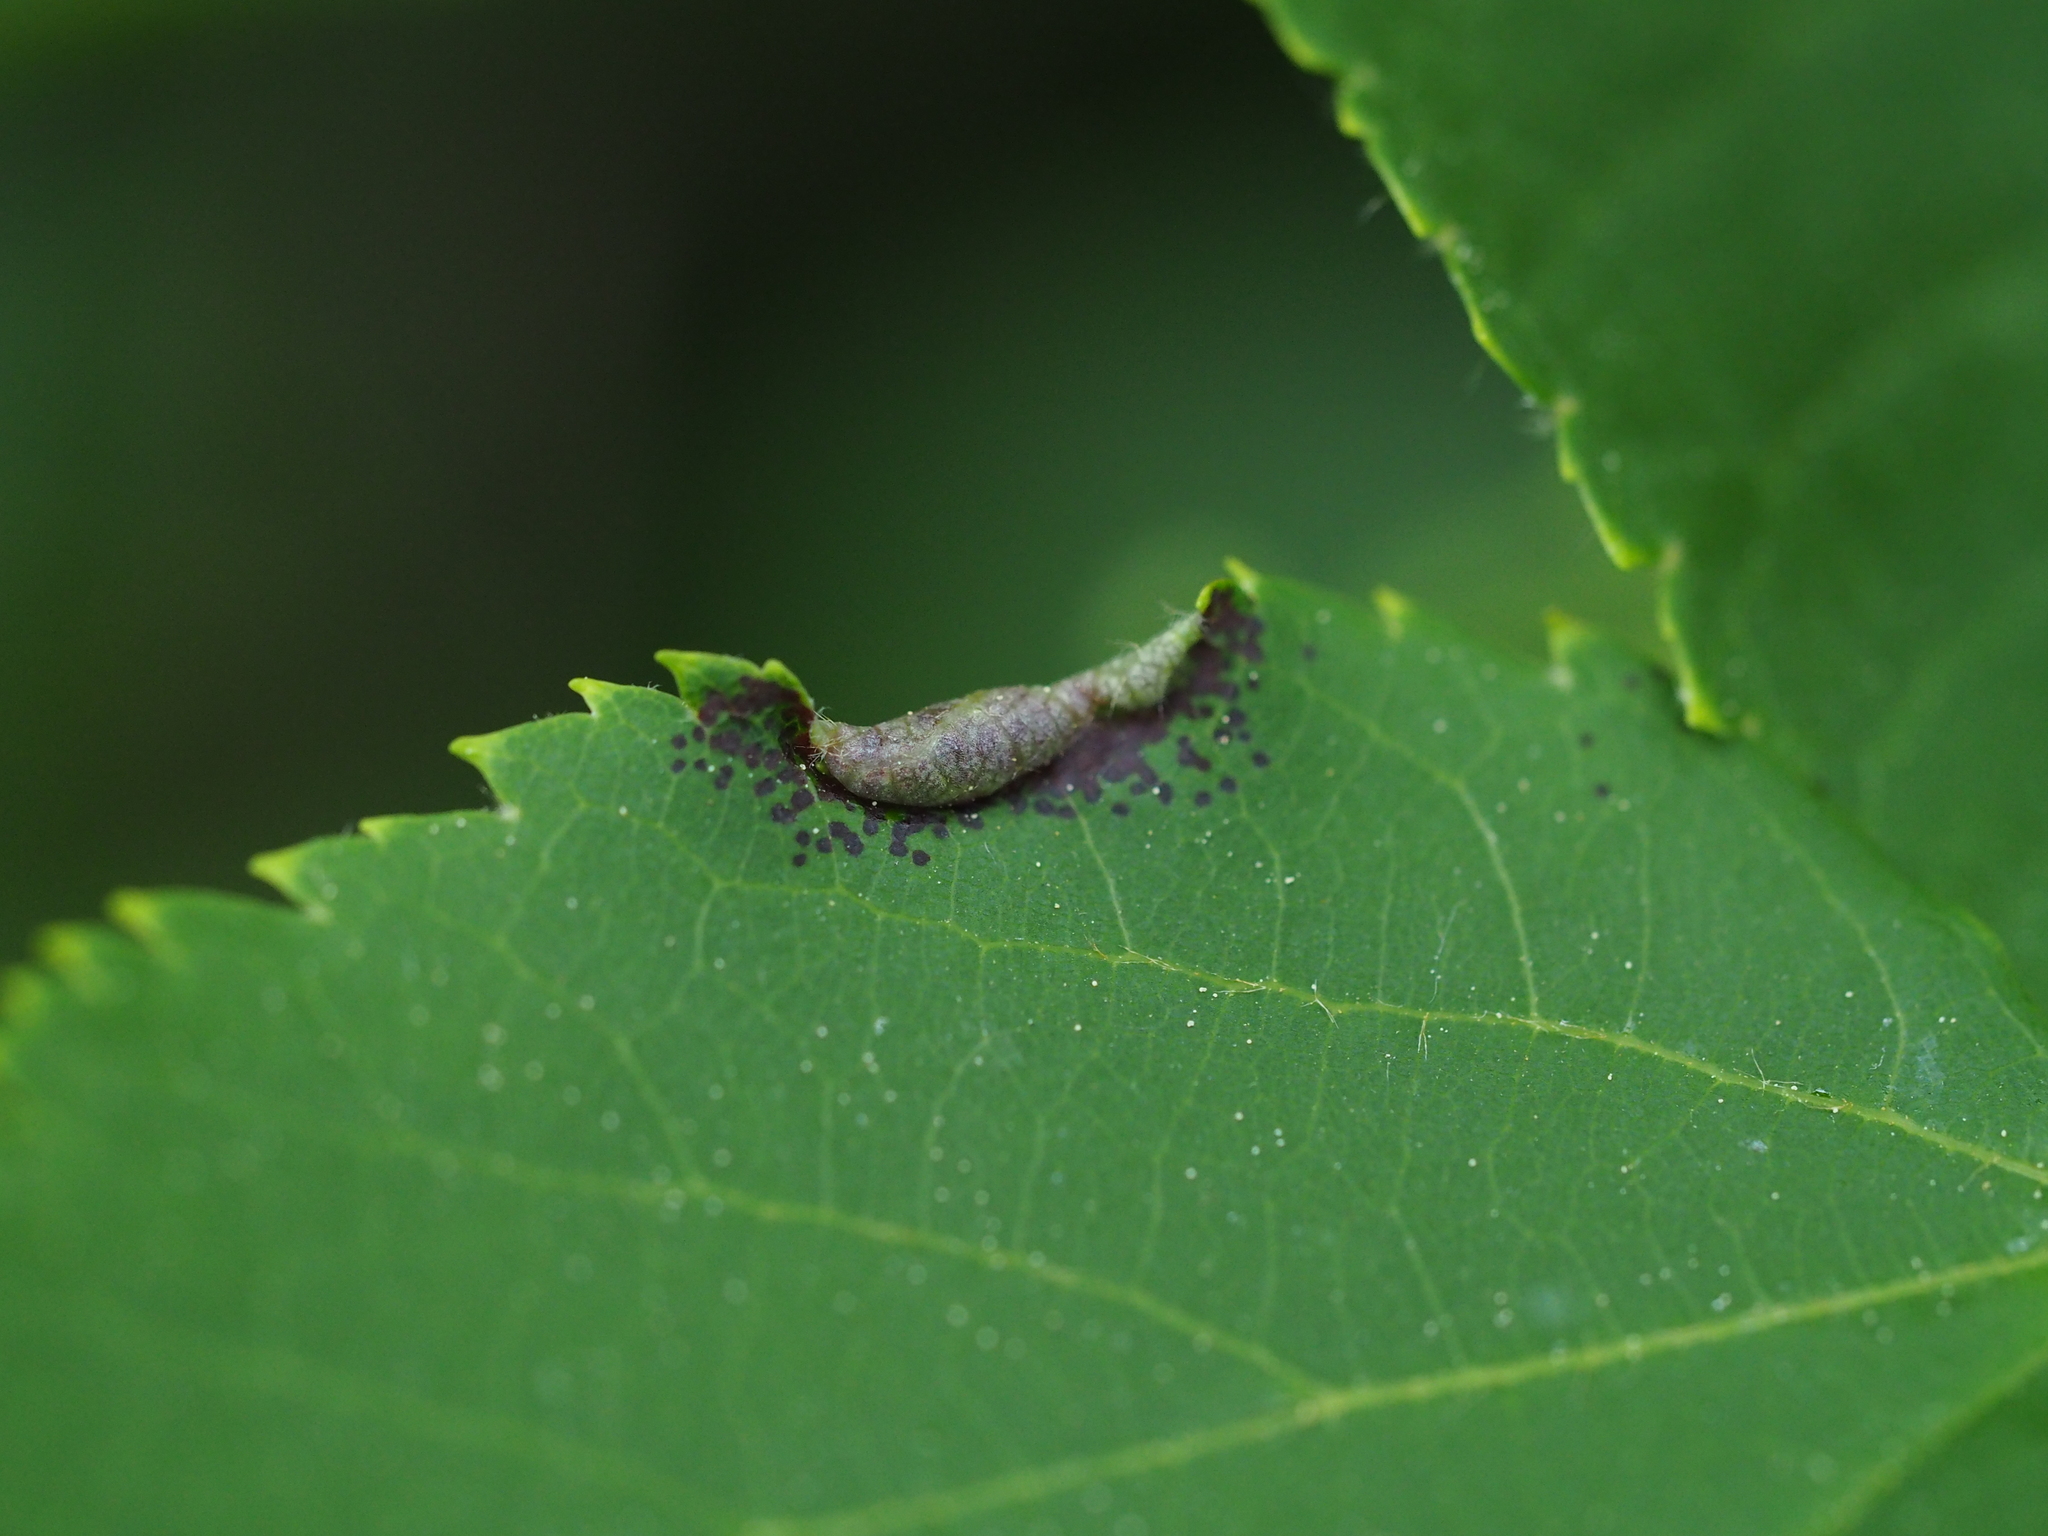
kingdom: Animalia
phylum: Arthropoda
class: Insecta
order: Diptera
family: Cecidomyiidae
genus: Dasineura
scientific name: Dasineura tiliae
